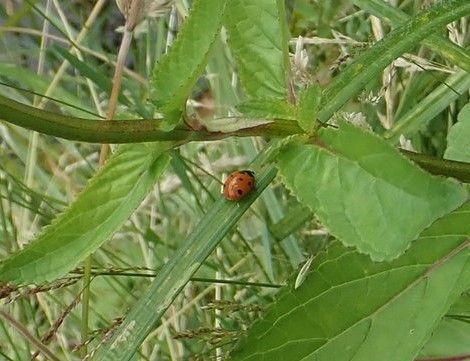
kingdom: Animalia
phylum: Arthropoda
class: Insecta
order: Coleoptera
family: Coccinellidae
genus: Coccinella
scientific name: Coccinella septempunctata
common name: Sevenspotted lady beetle
